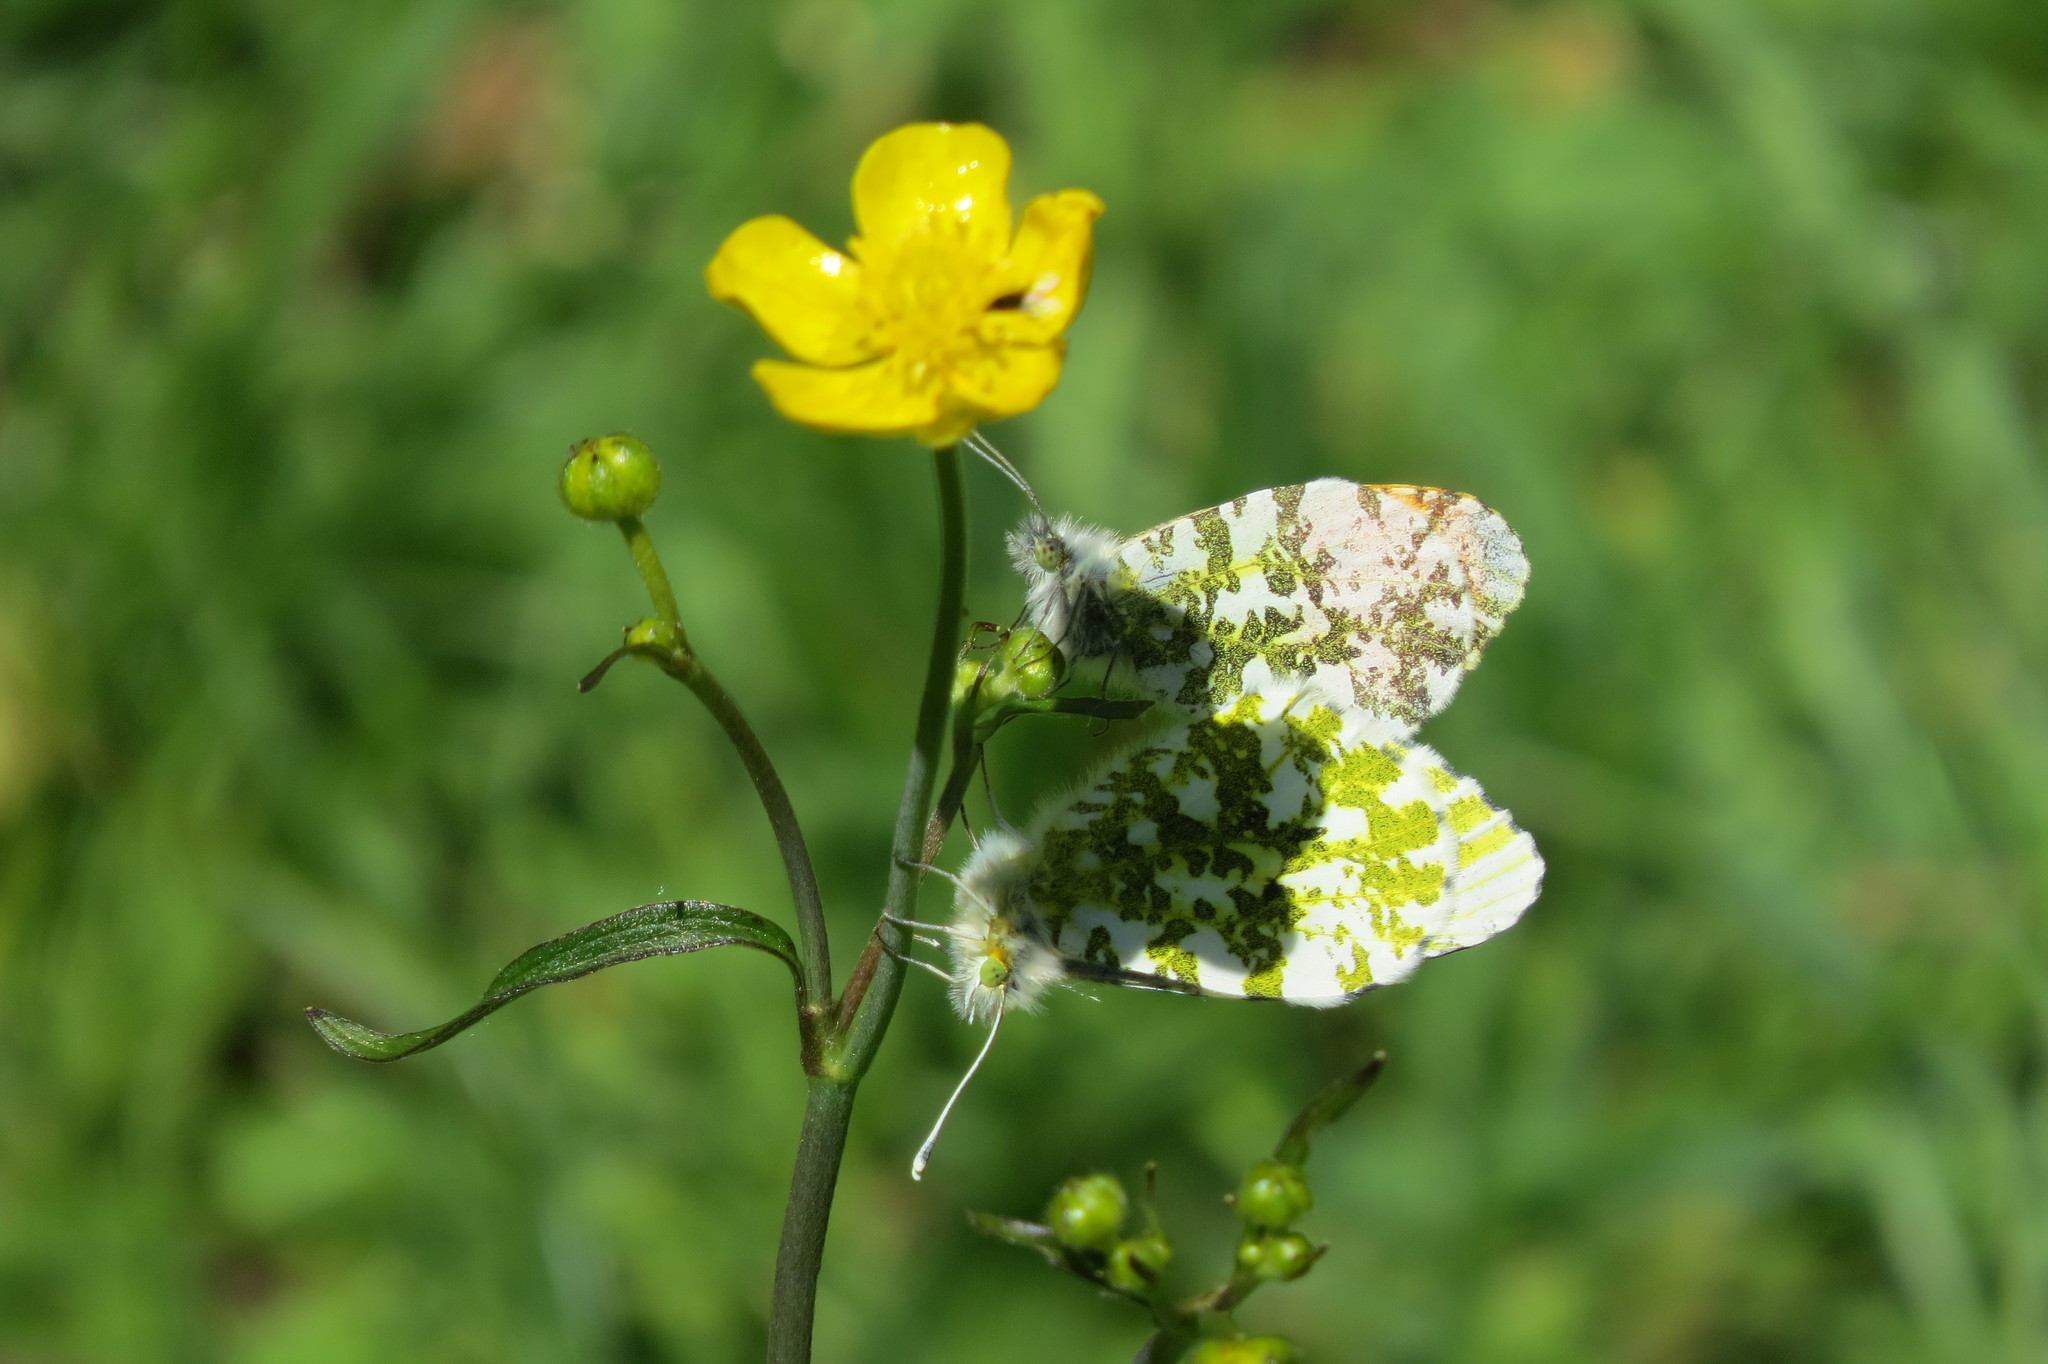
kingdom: Animalia
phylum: Arthropoda
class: Insecta
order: Lepidoptera
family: Pieridae
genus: Anthocharis
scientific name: Anthocharis cardamines
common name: Orange-tip
